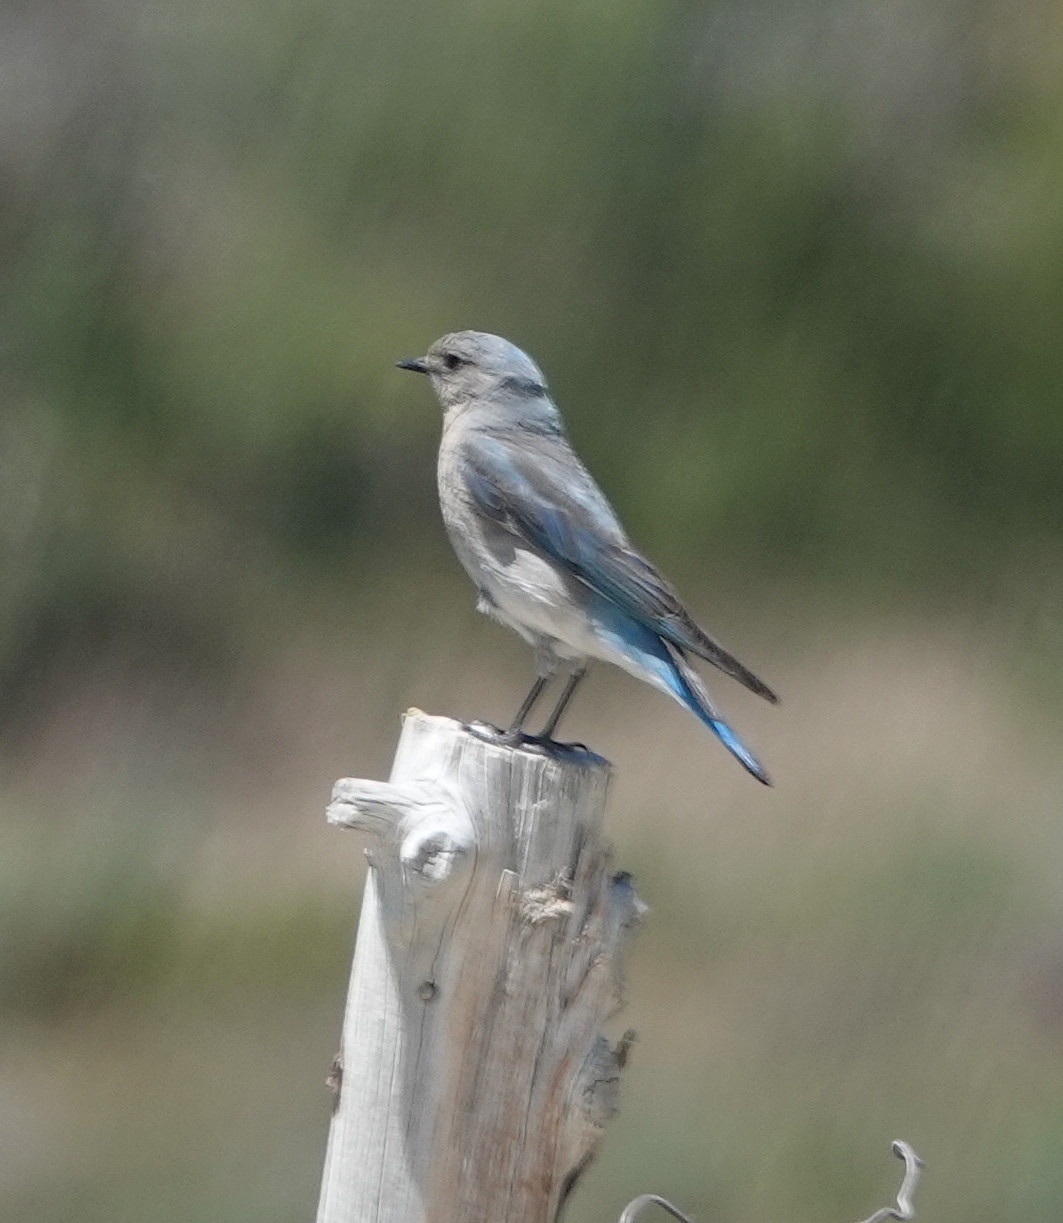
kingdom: Animalia
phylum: Chordata
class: Aves
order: Passeriformes
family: Turdidae
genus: Sialia
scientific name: Sialia currucoides
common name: Mountain bluebird
